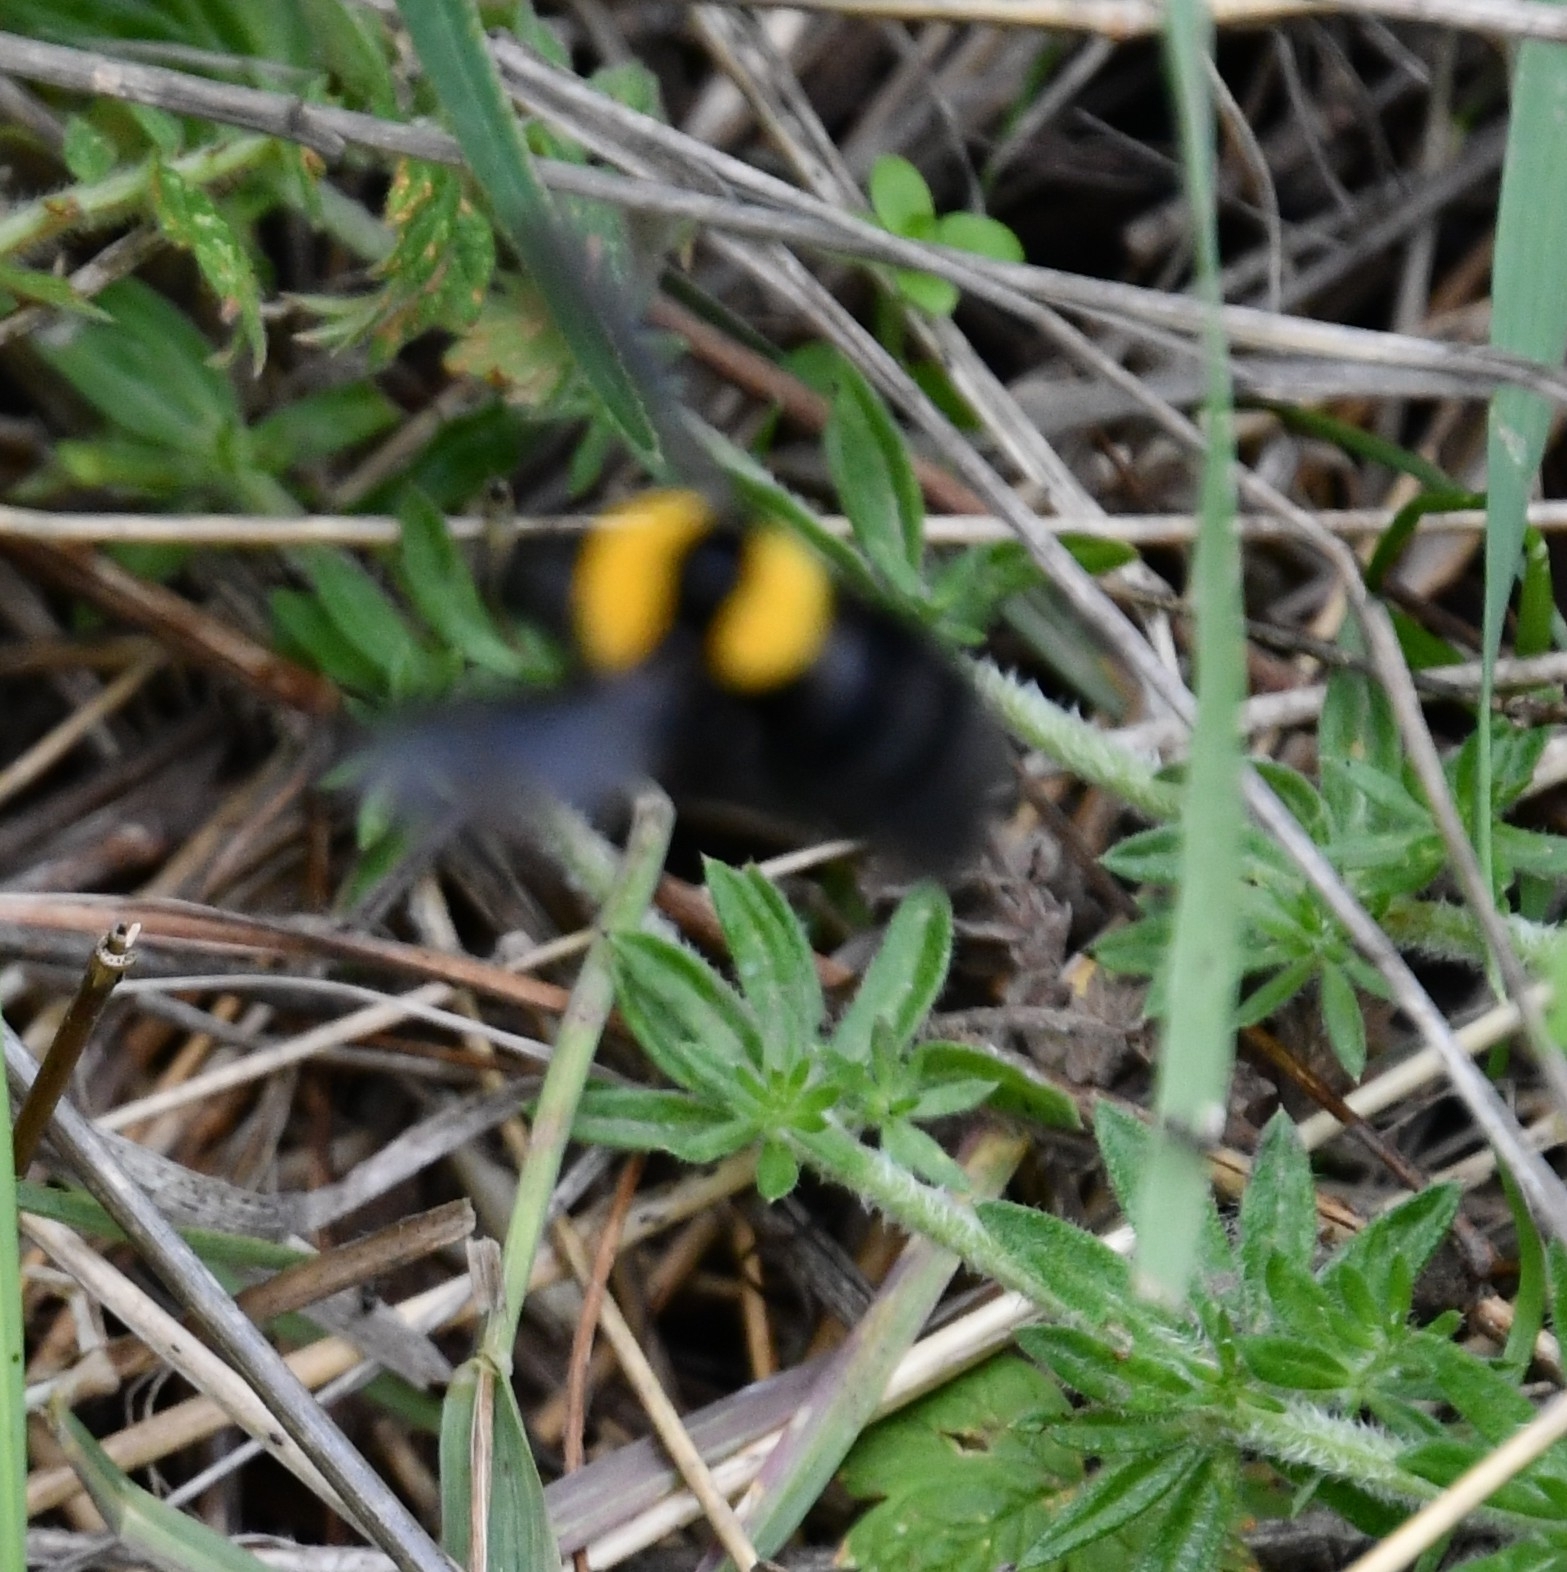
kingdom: Animalia
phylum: Arthropoda
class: Insecta
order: Hymenoptera
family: Apidae
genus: Bombus
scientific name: Bombus argillaceus
